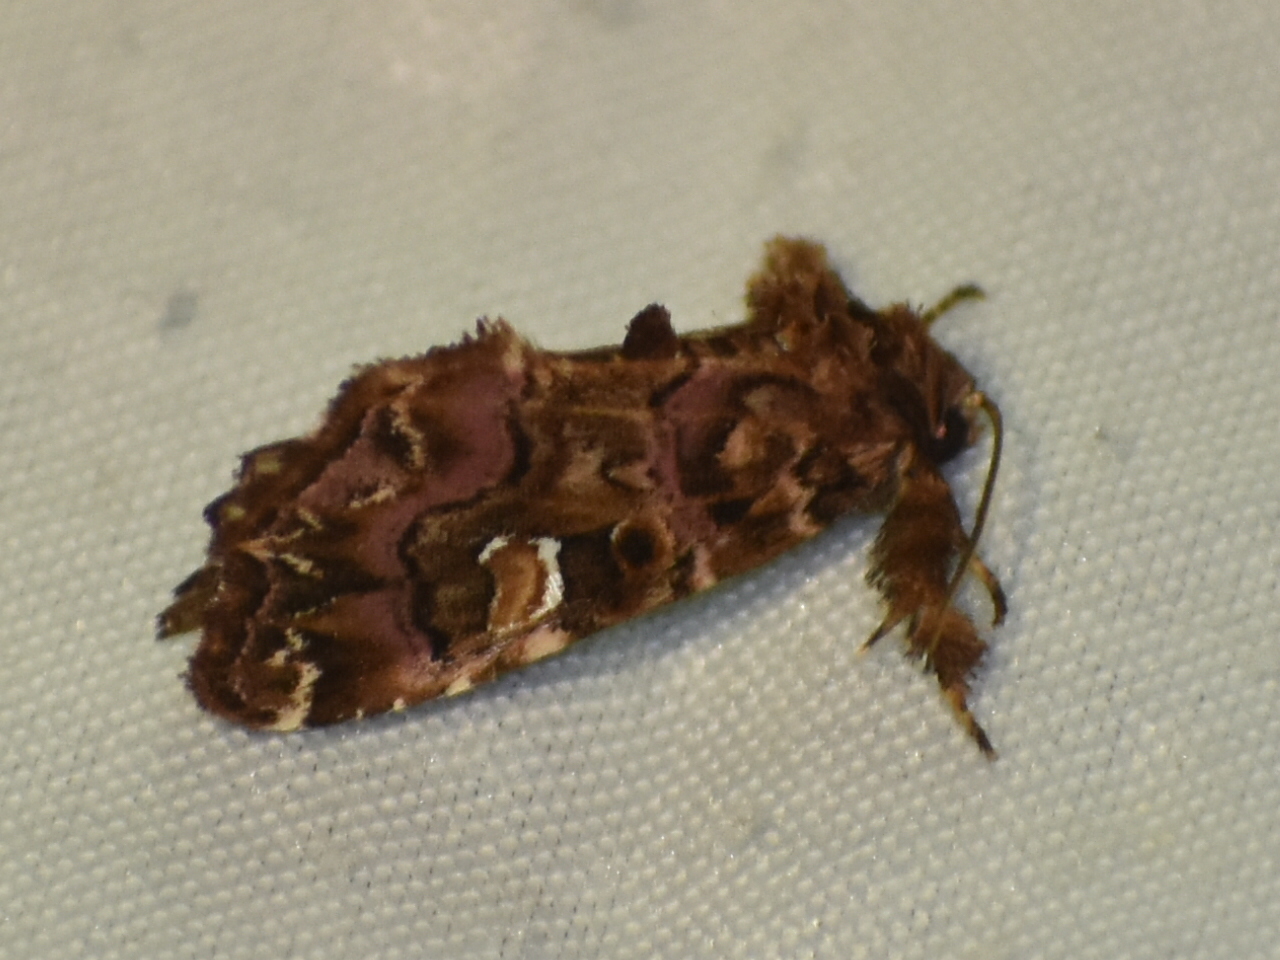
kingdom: Animalia
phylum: Arthropoda
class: Insecta
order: Lepidoptera
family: Noctuidae
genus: Callopistria
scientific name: Callopistria mollissima
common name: Pink-shaded fern moth
